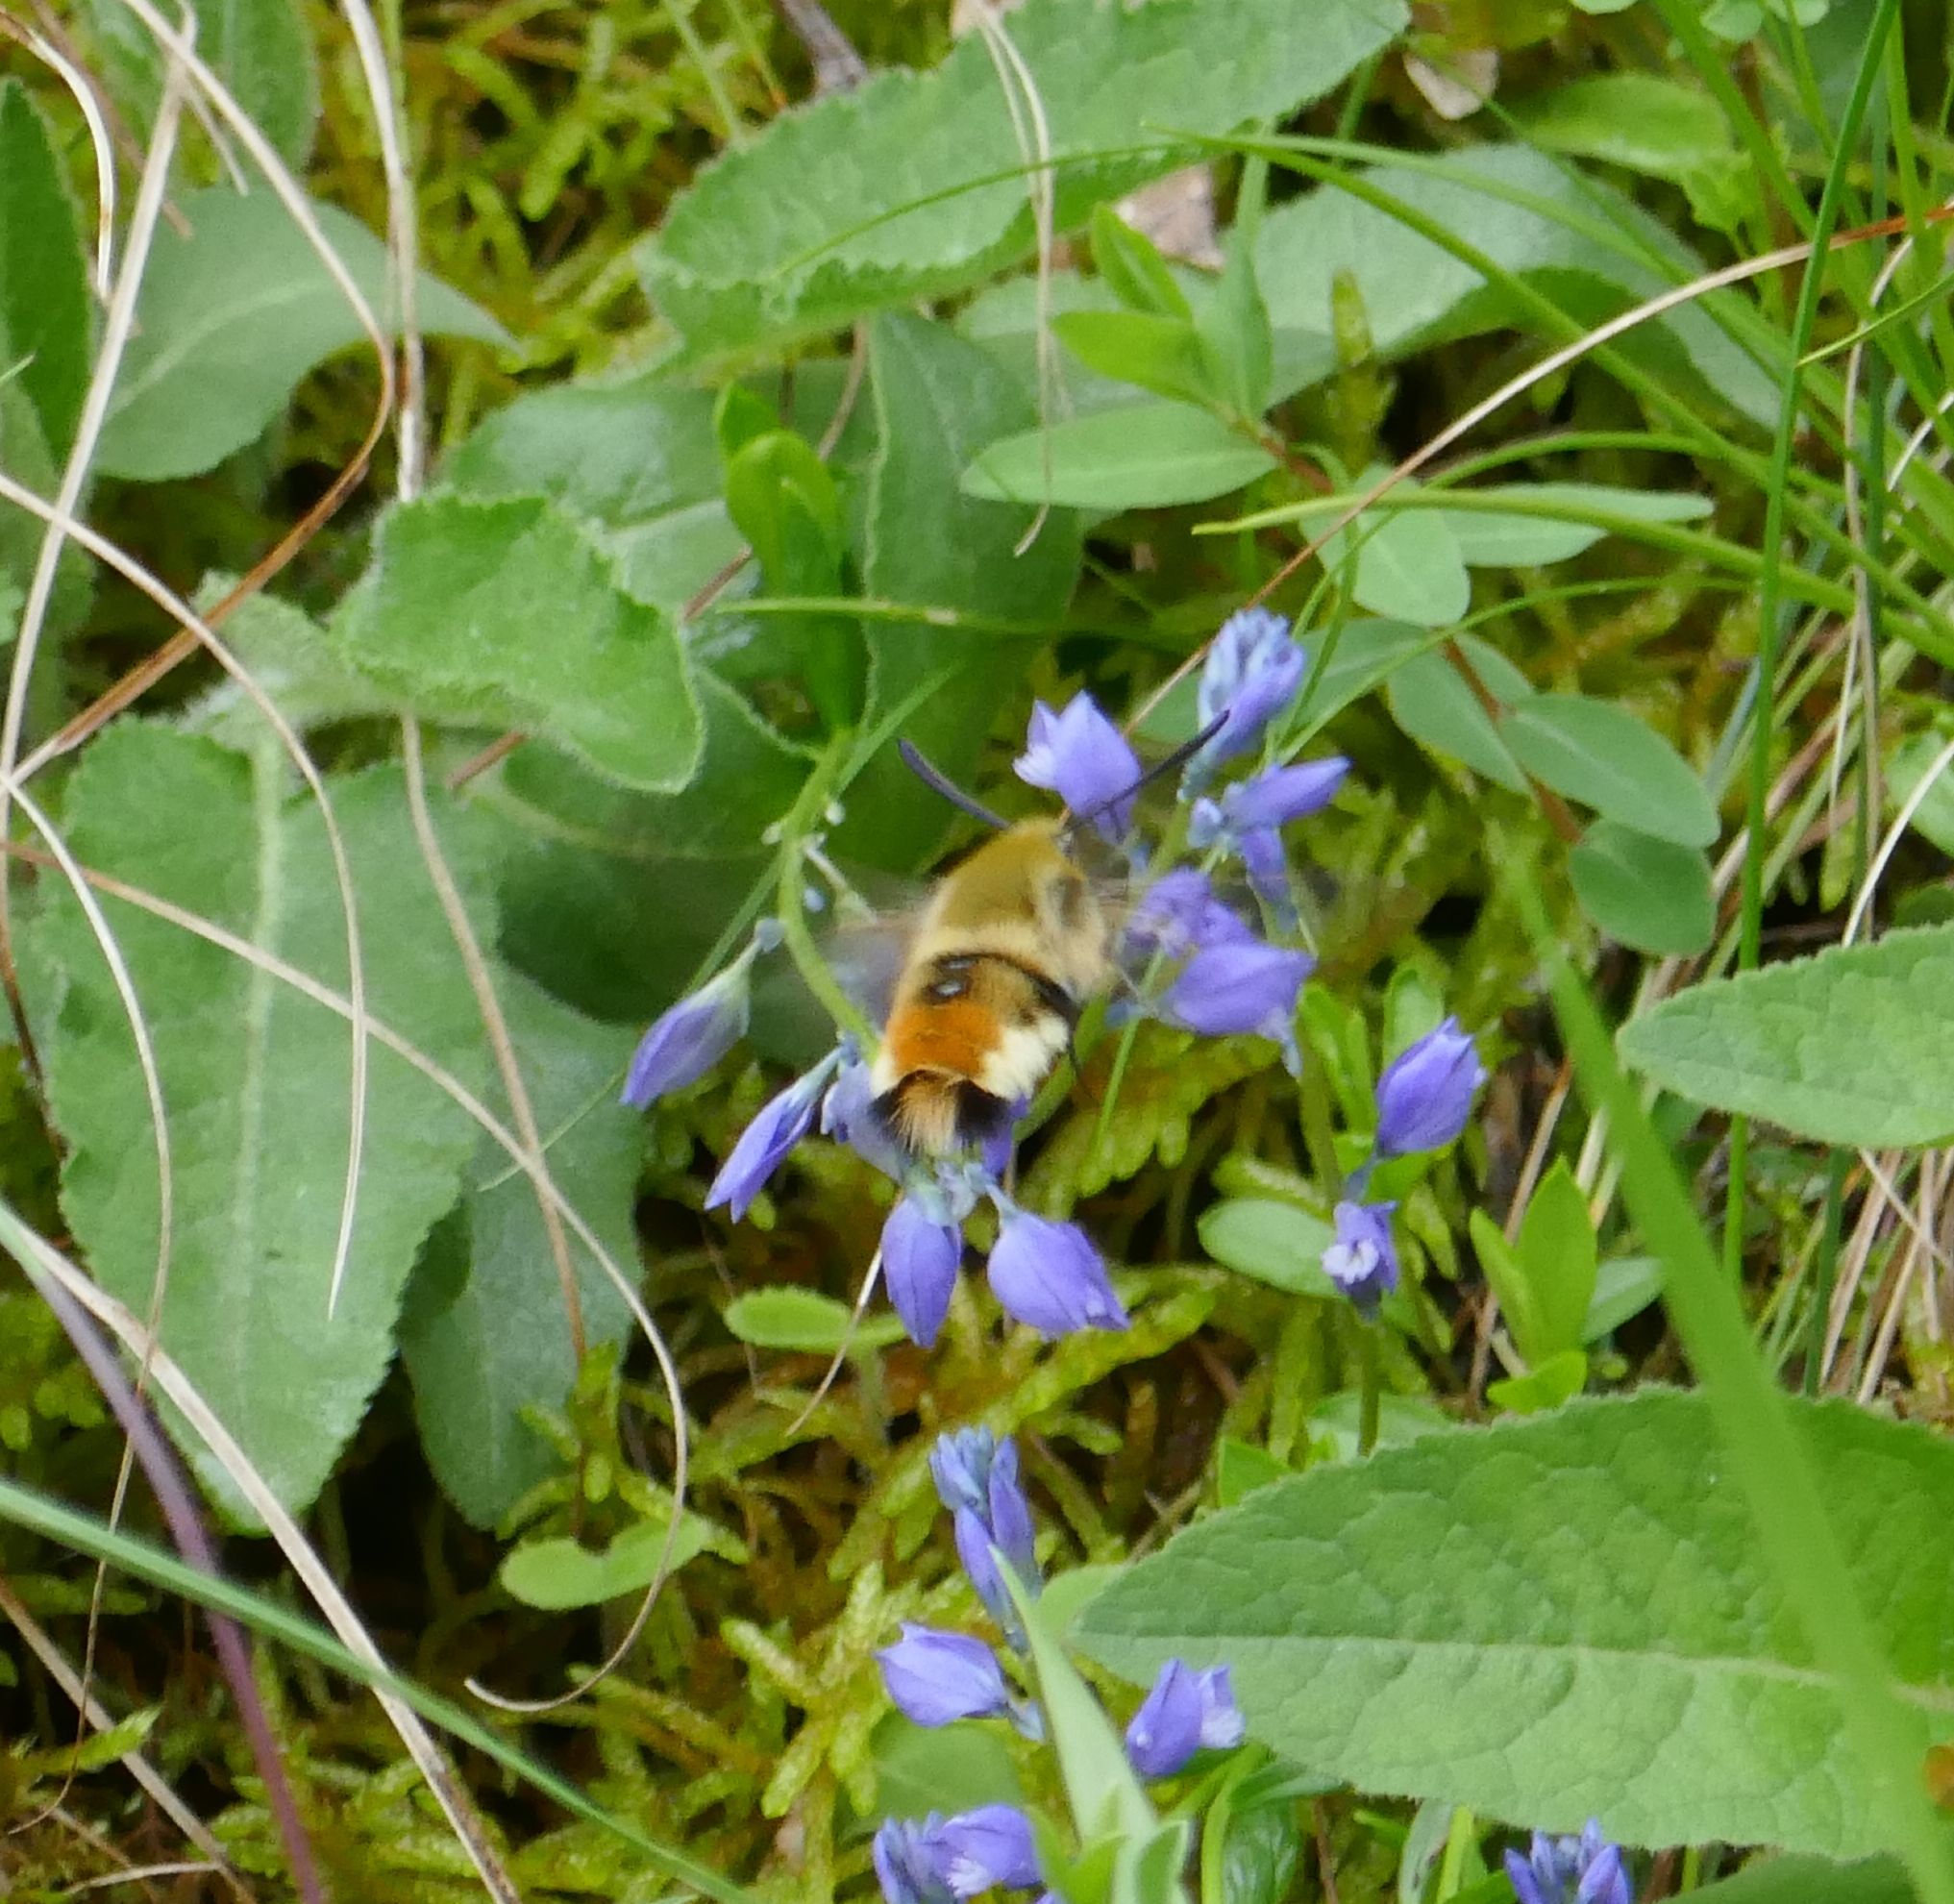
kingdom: Animalia
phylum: Arthropoda
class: Insecta
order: Lepidoptera
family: Sphingidae
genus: Hemaris
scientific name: Hemaris tityus
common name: Narrow-bordered bee hawk-moth
